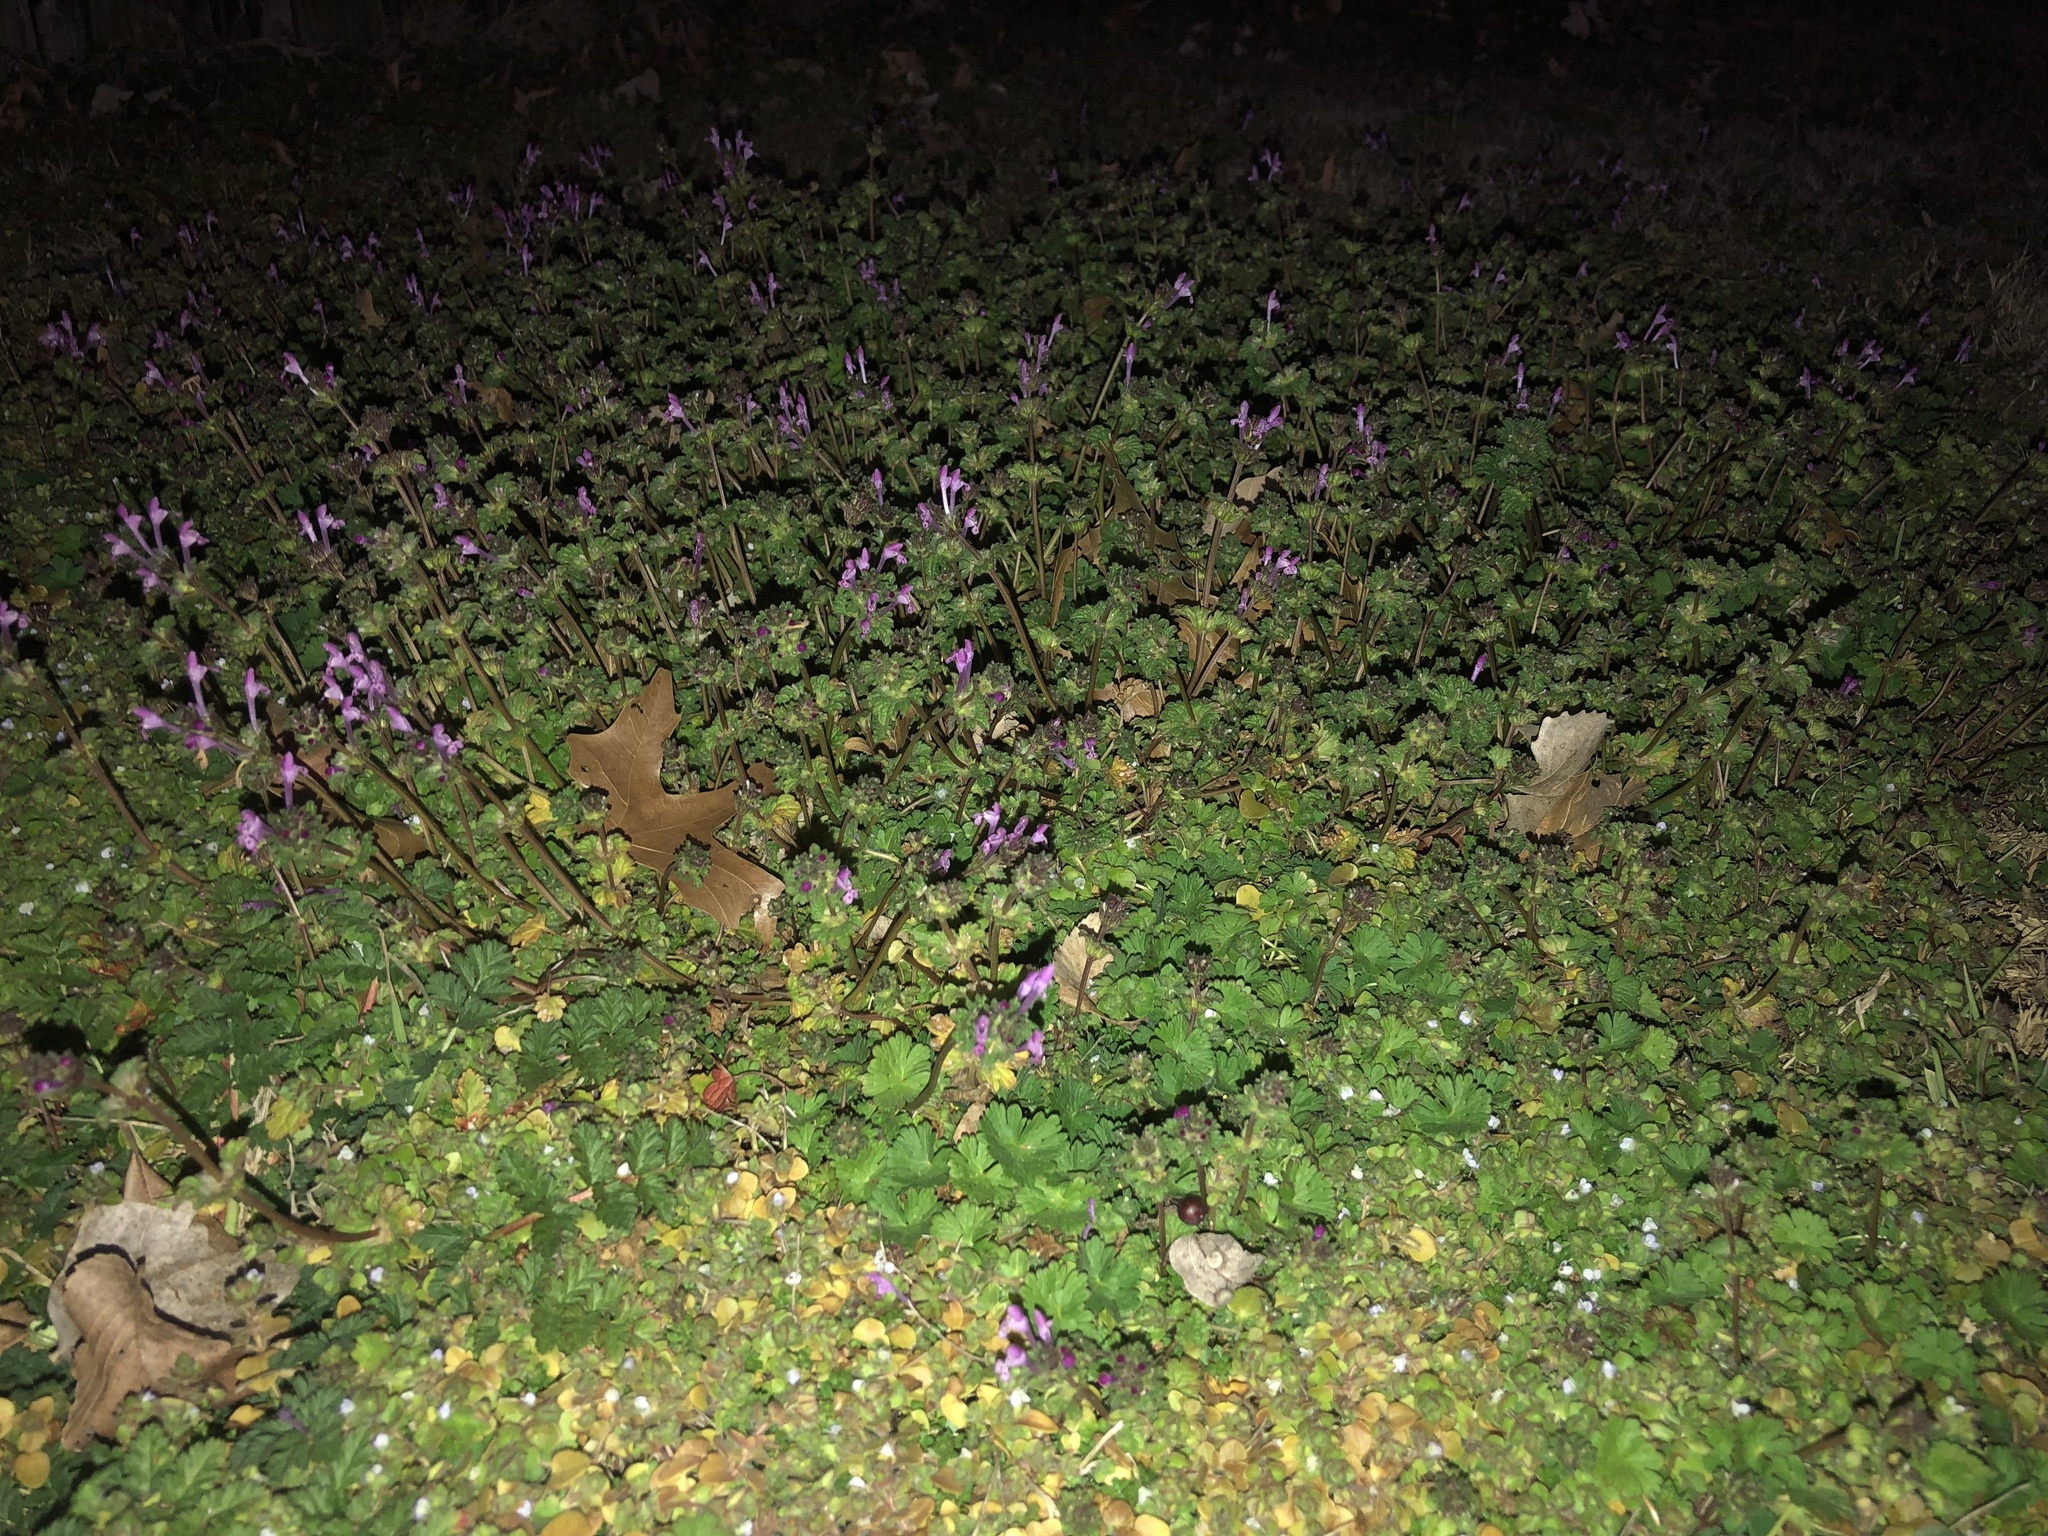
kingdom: Plantae
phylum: Tracheophyta
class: Magnoliopsida
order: Lamiales
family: Lamiaceae
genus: Lamium
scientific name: Lamium amplexicaule
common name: Henbit dead-nettle
